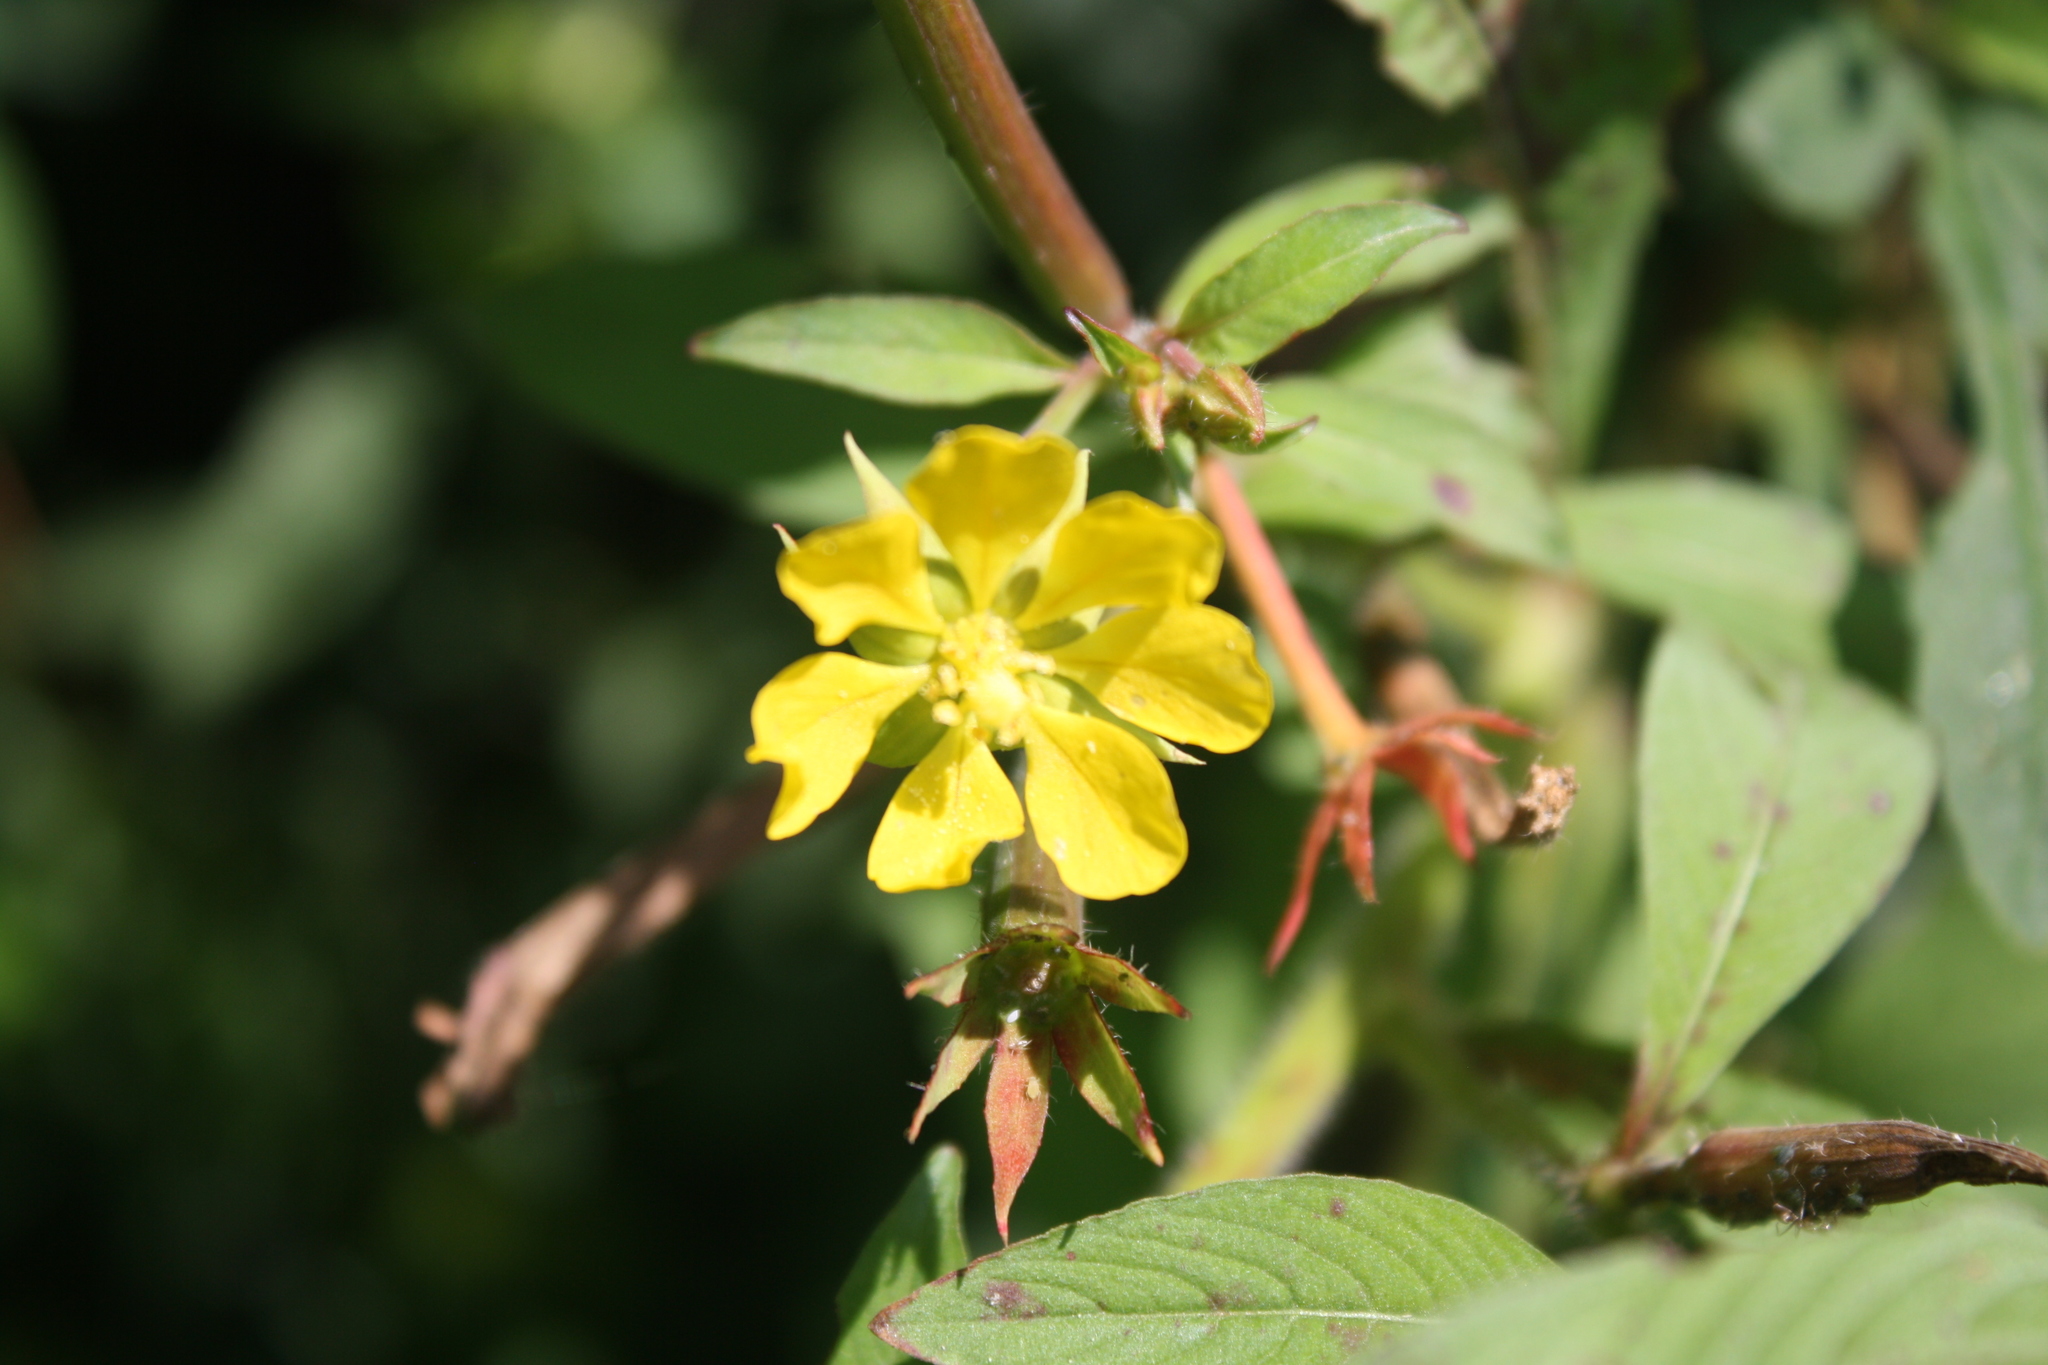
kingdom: Plantae
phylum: Tracheophyta
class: Magnoliopsida
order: Myrtales
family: Onagraceae
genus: Ludwigia
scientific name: Ludwigia leptocarpa
